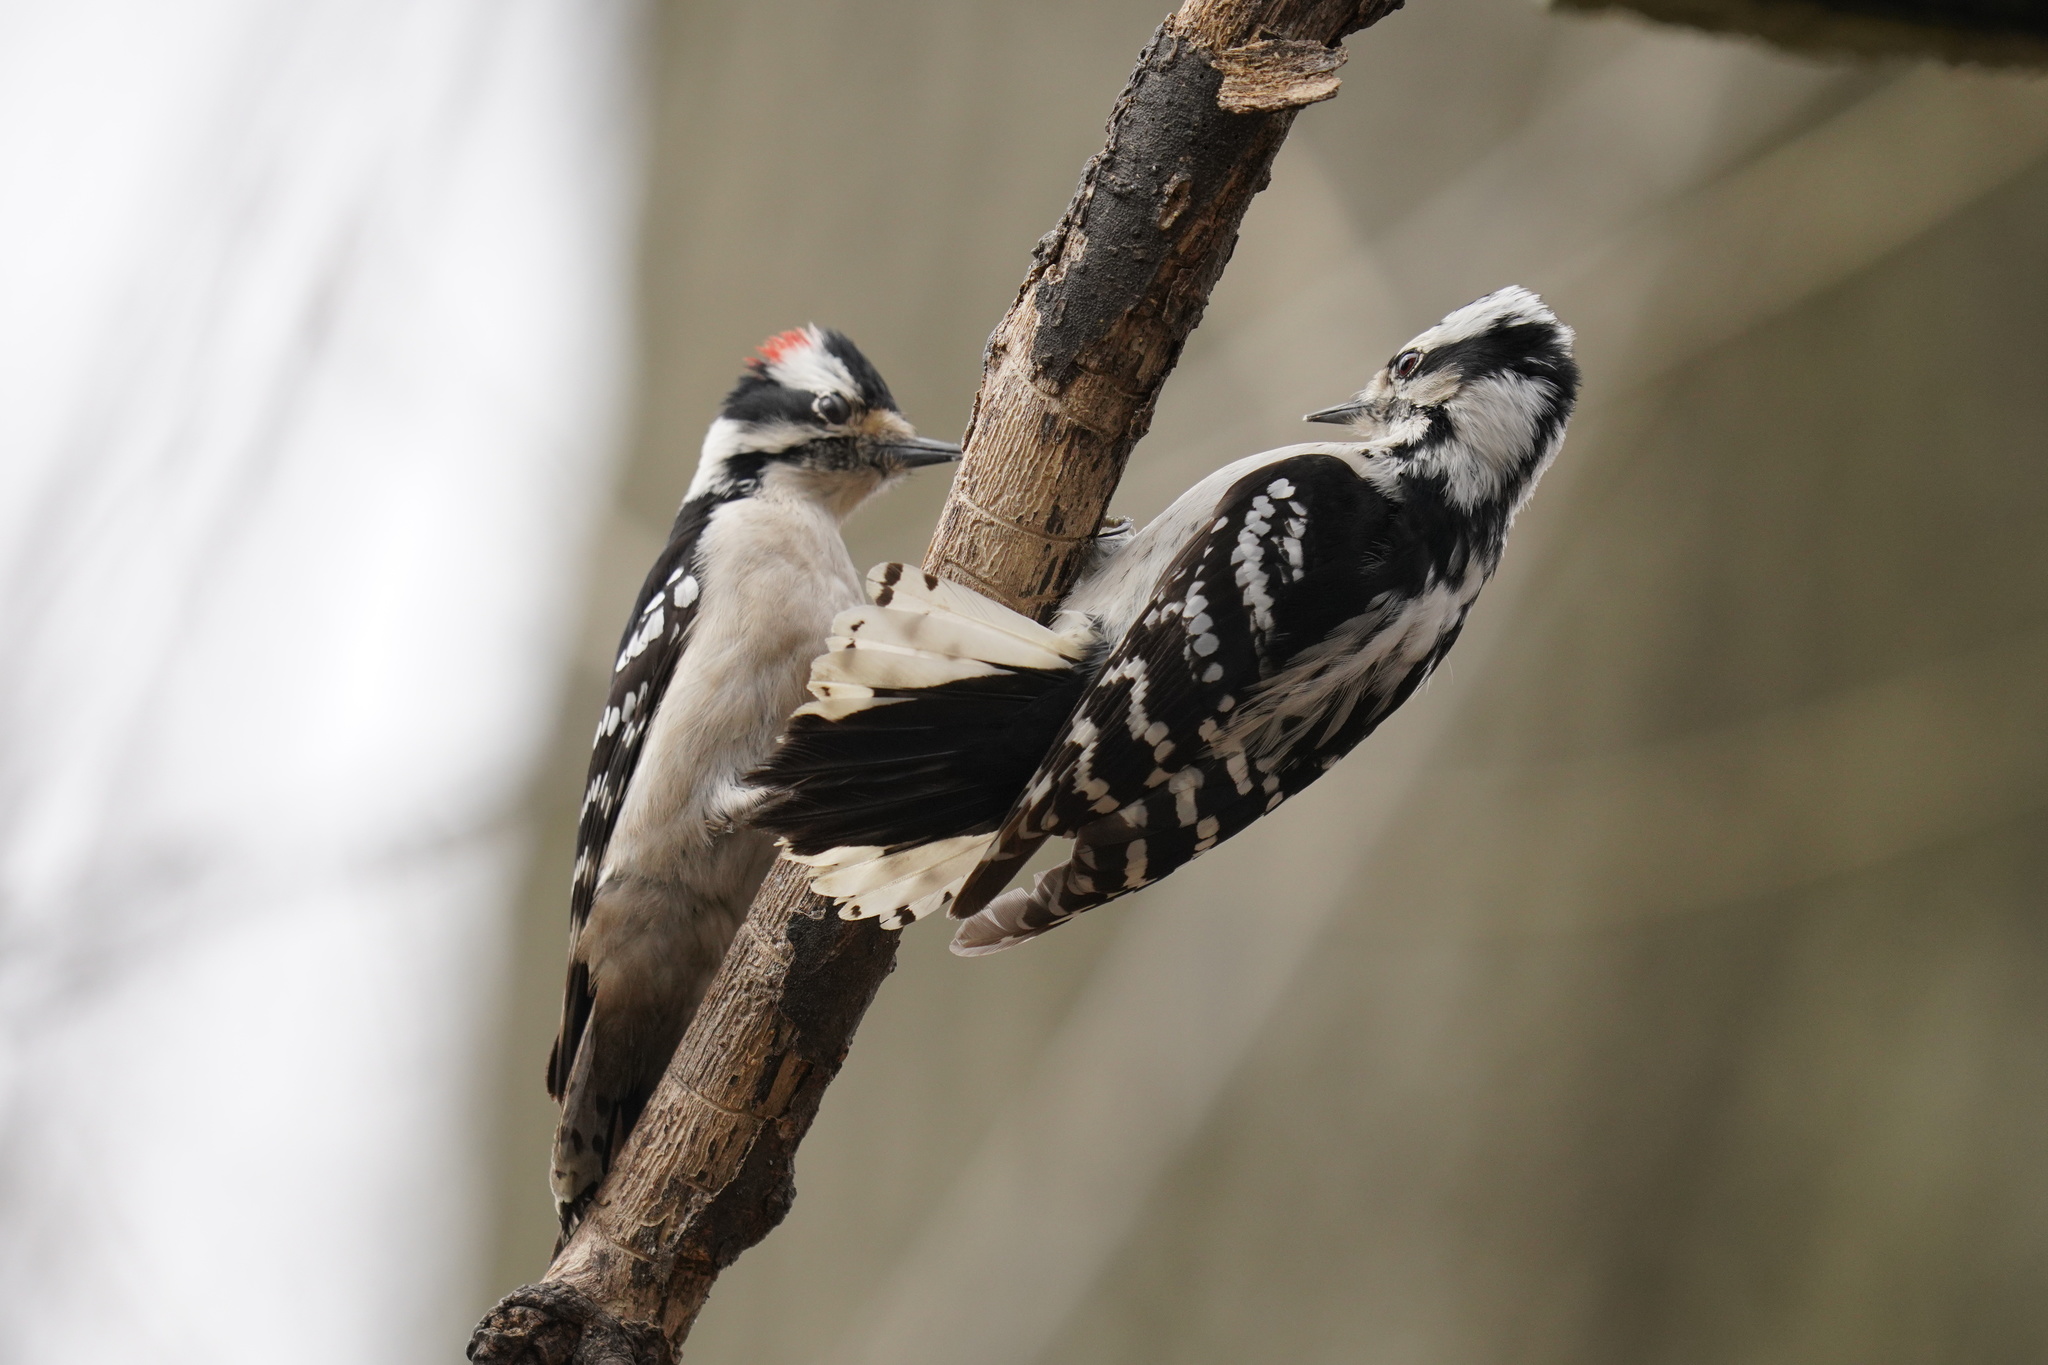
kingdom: Animalia
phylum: Chordata
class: Aves
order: Piciformes
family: Picidae
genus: Dryobates
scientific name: Dryobates pubescens
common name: Downy woodpecker
